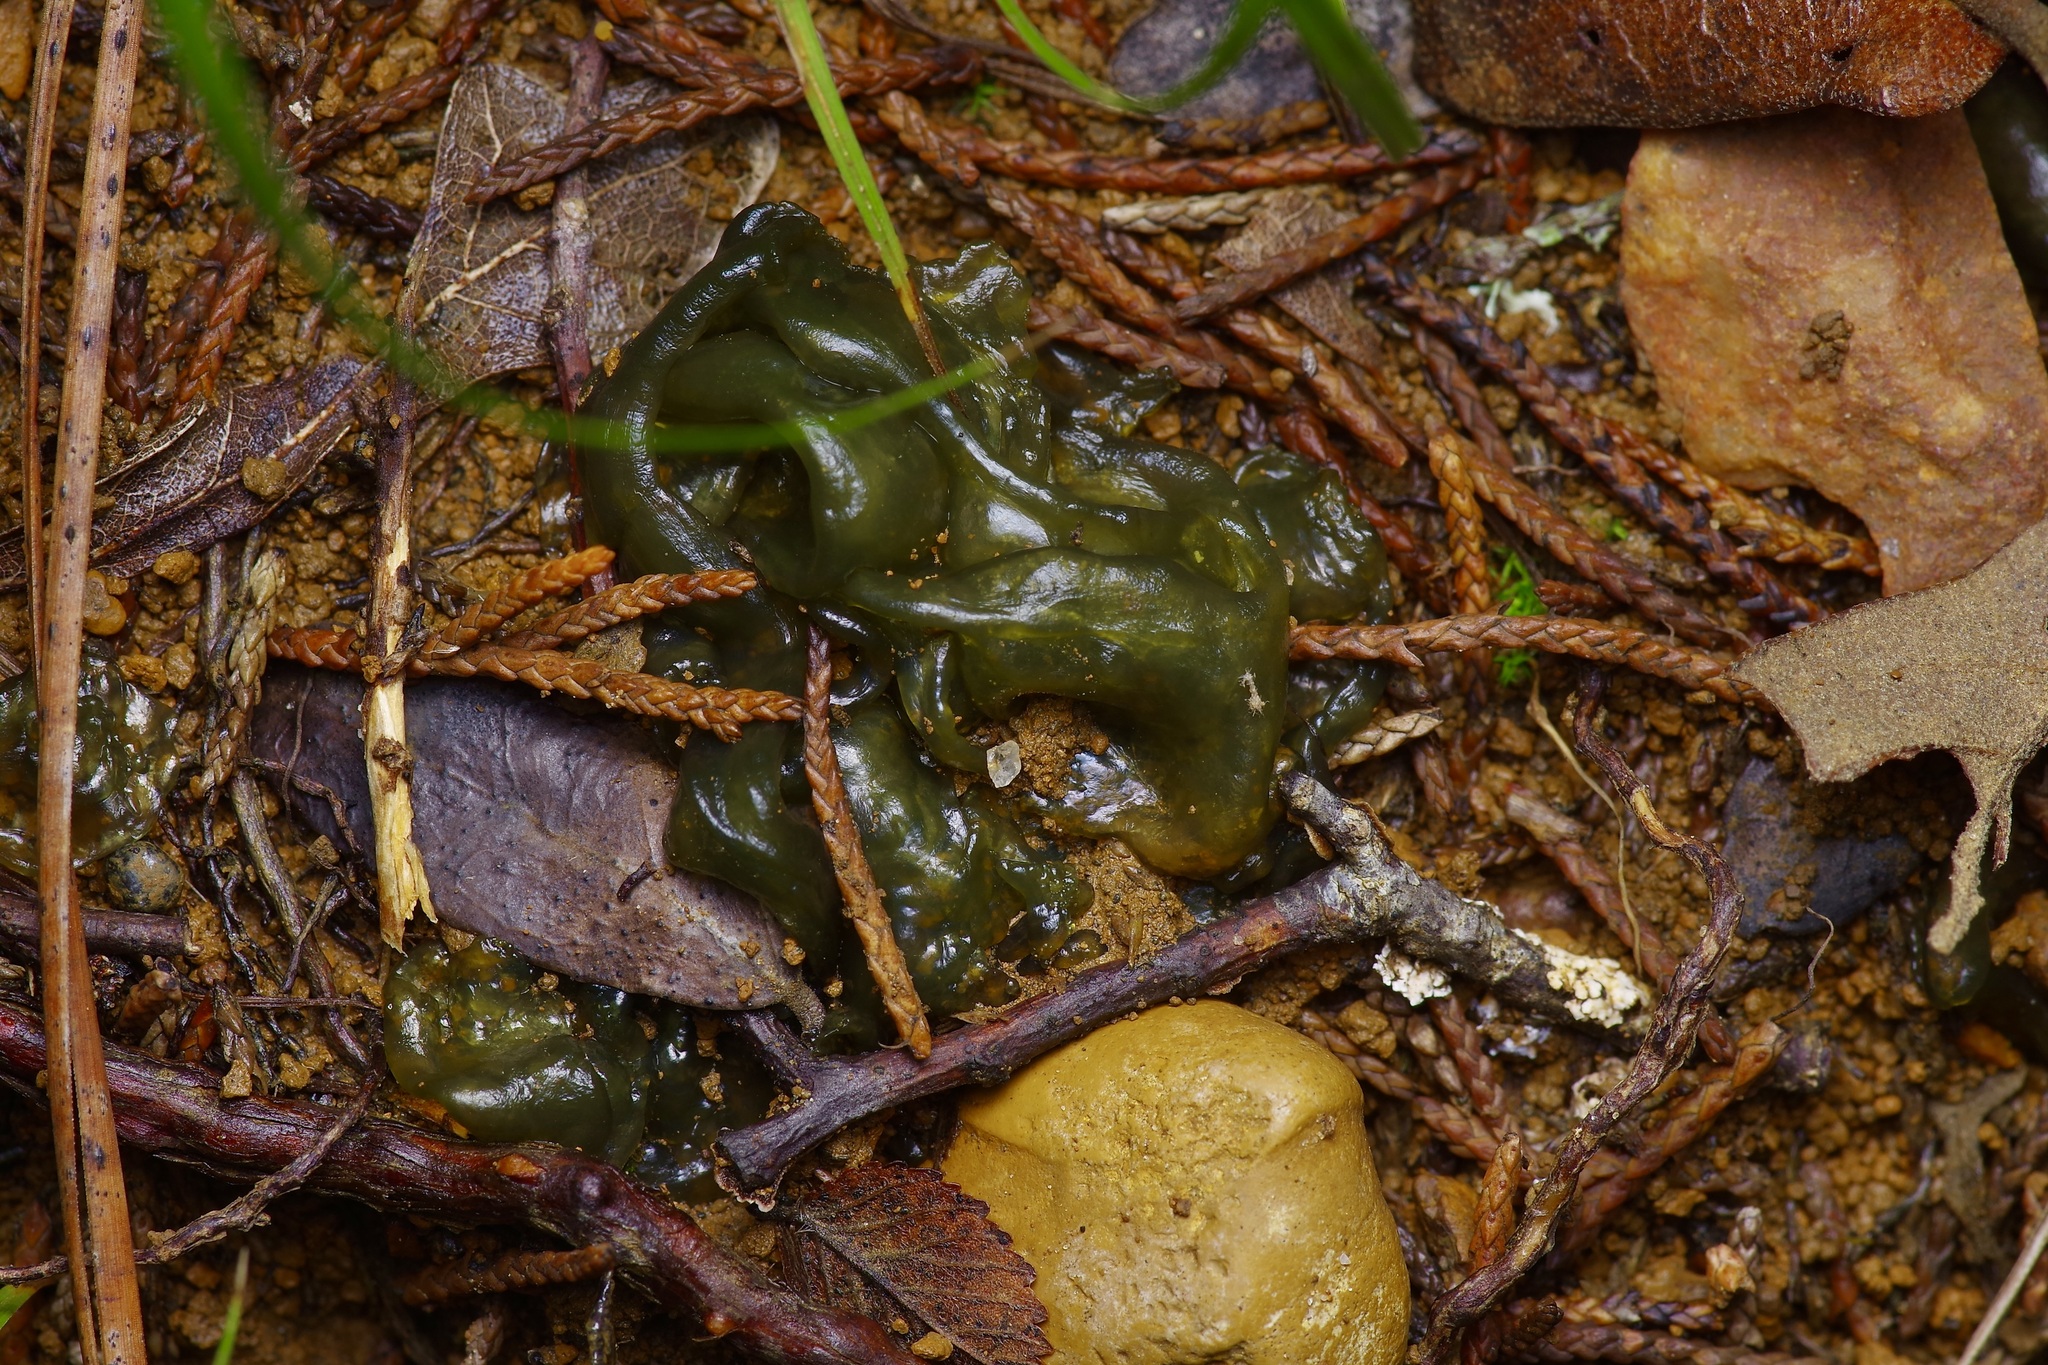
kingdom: Bacteria
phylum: Cyanobacteria
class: Cyanobacteriia
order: Cyanobacteriales
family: Nostocaceae
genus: Nostoc
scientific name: Nostoc commune
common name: Star jelly
